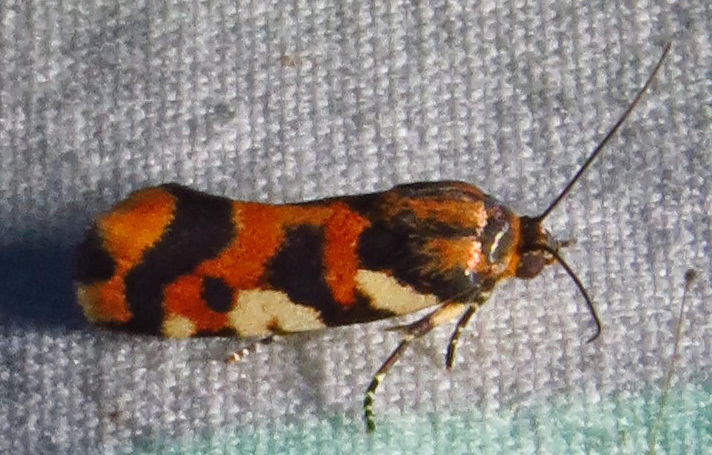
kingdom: Animalia
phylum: Arthropoda
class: Insecta
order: Lepidoptera
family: Noctuidae
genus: Acontia
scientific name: Acontia dama
